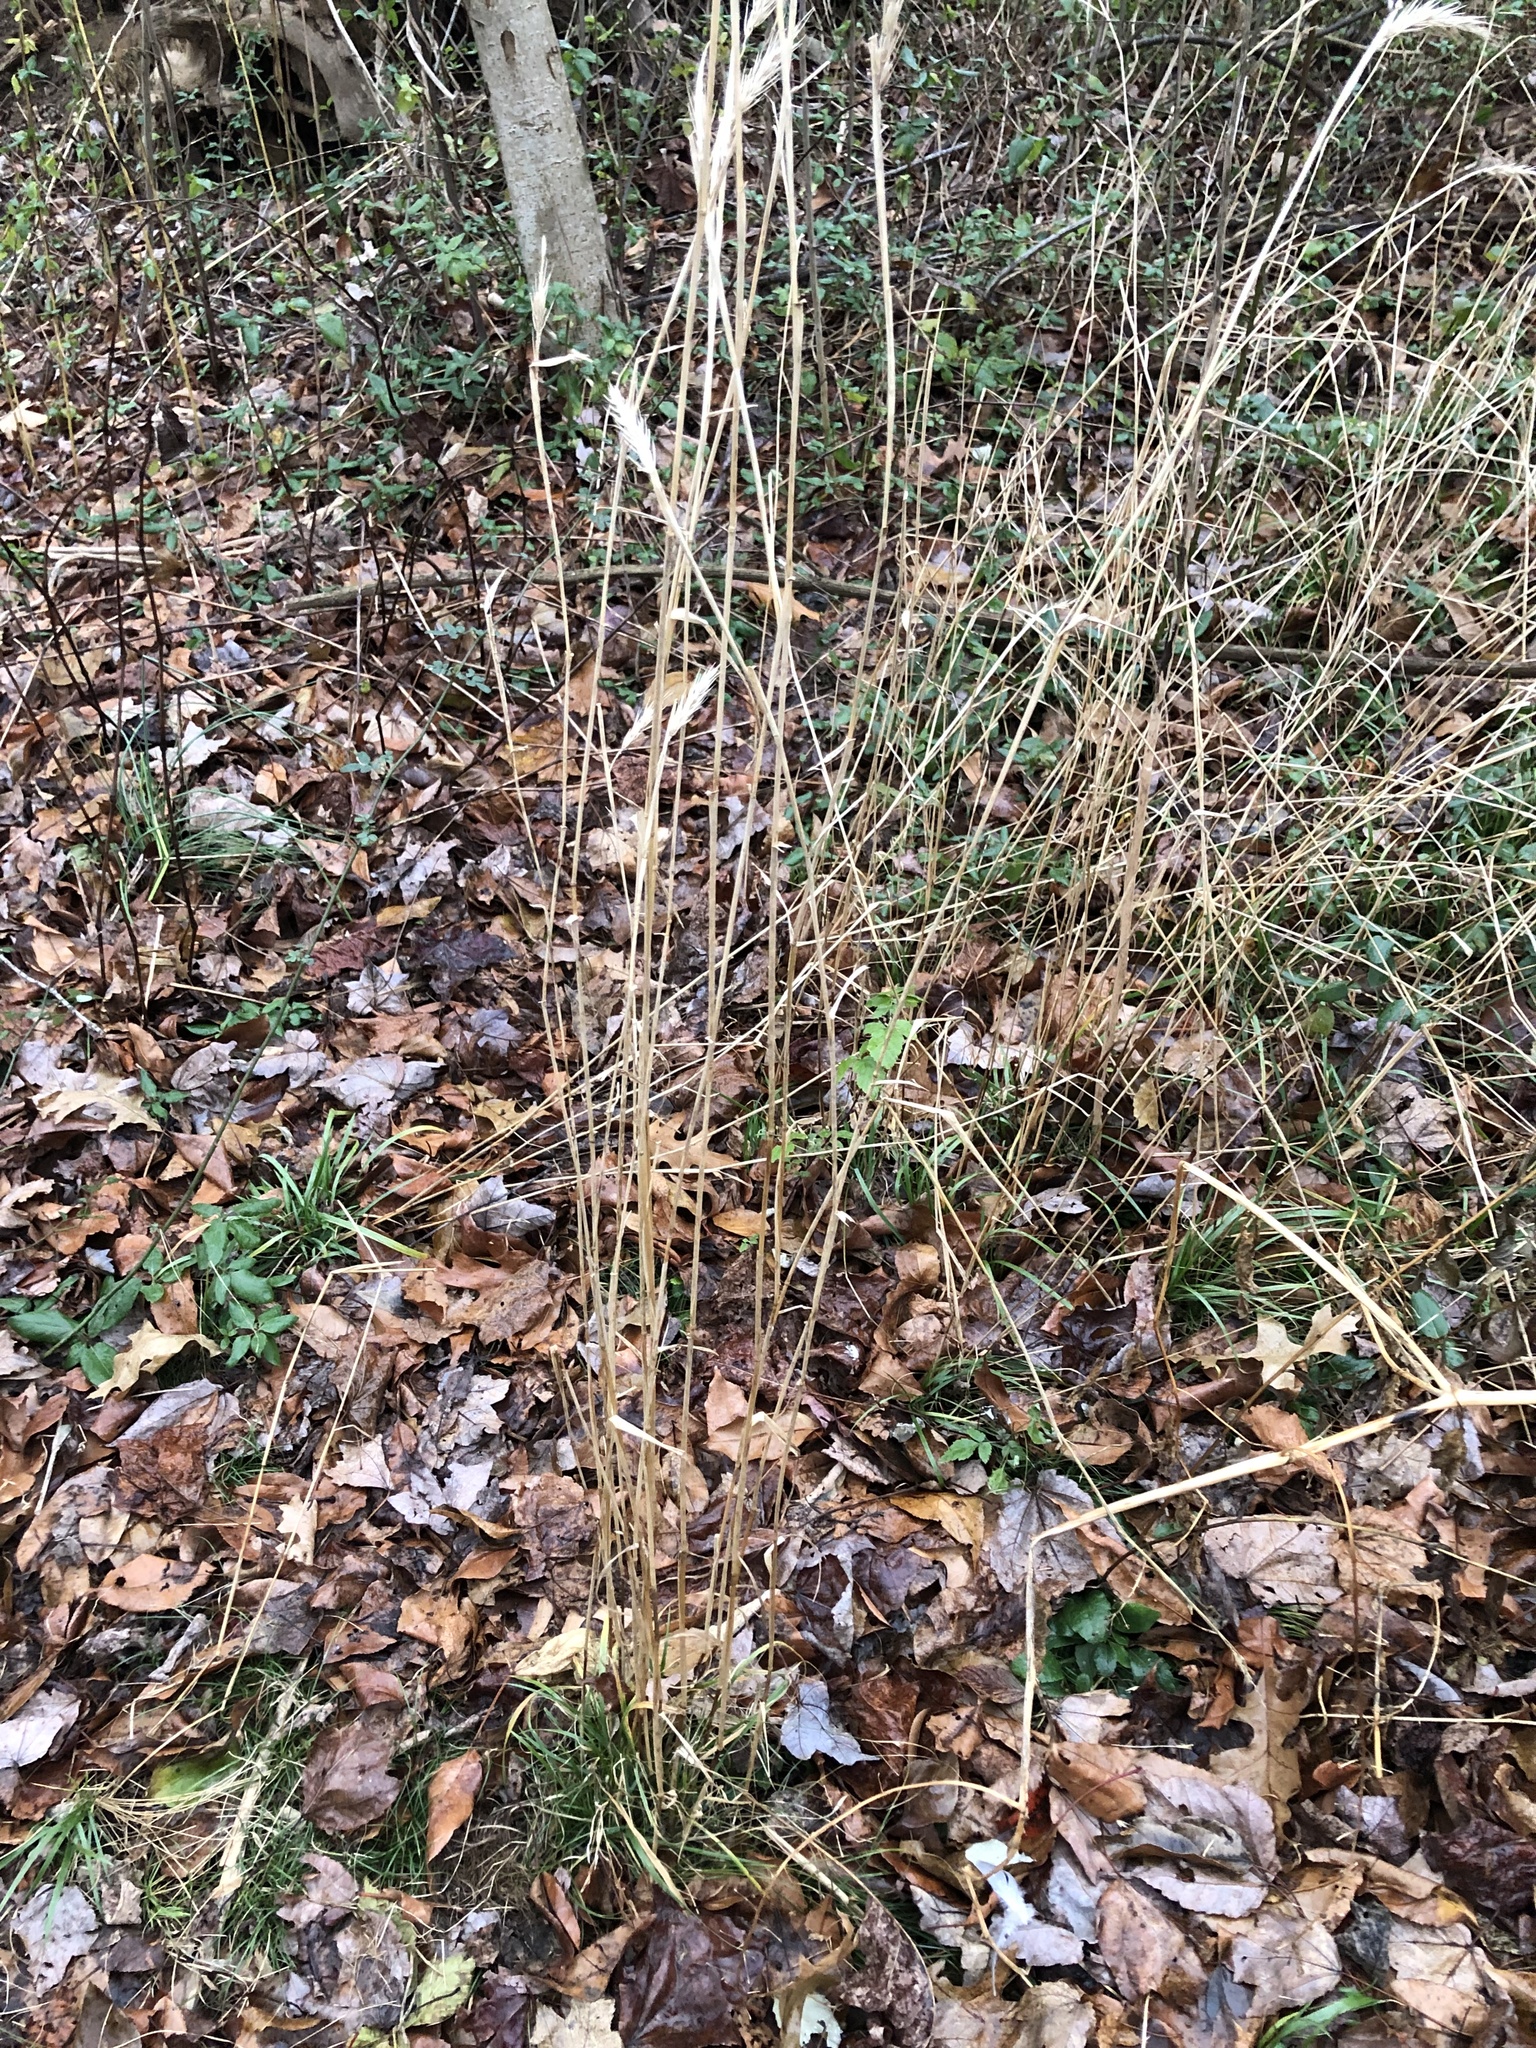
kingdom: Plantae
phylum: Tracheophyta
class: Liliopsida
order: Poales
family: Poaceae
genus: Elymus
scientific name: Elymus virginicus
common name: Common eastern wildrye
